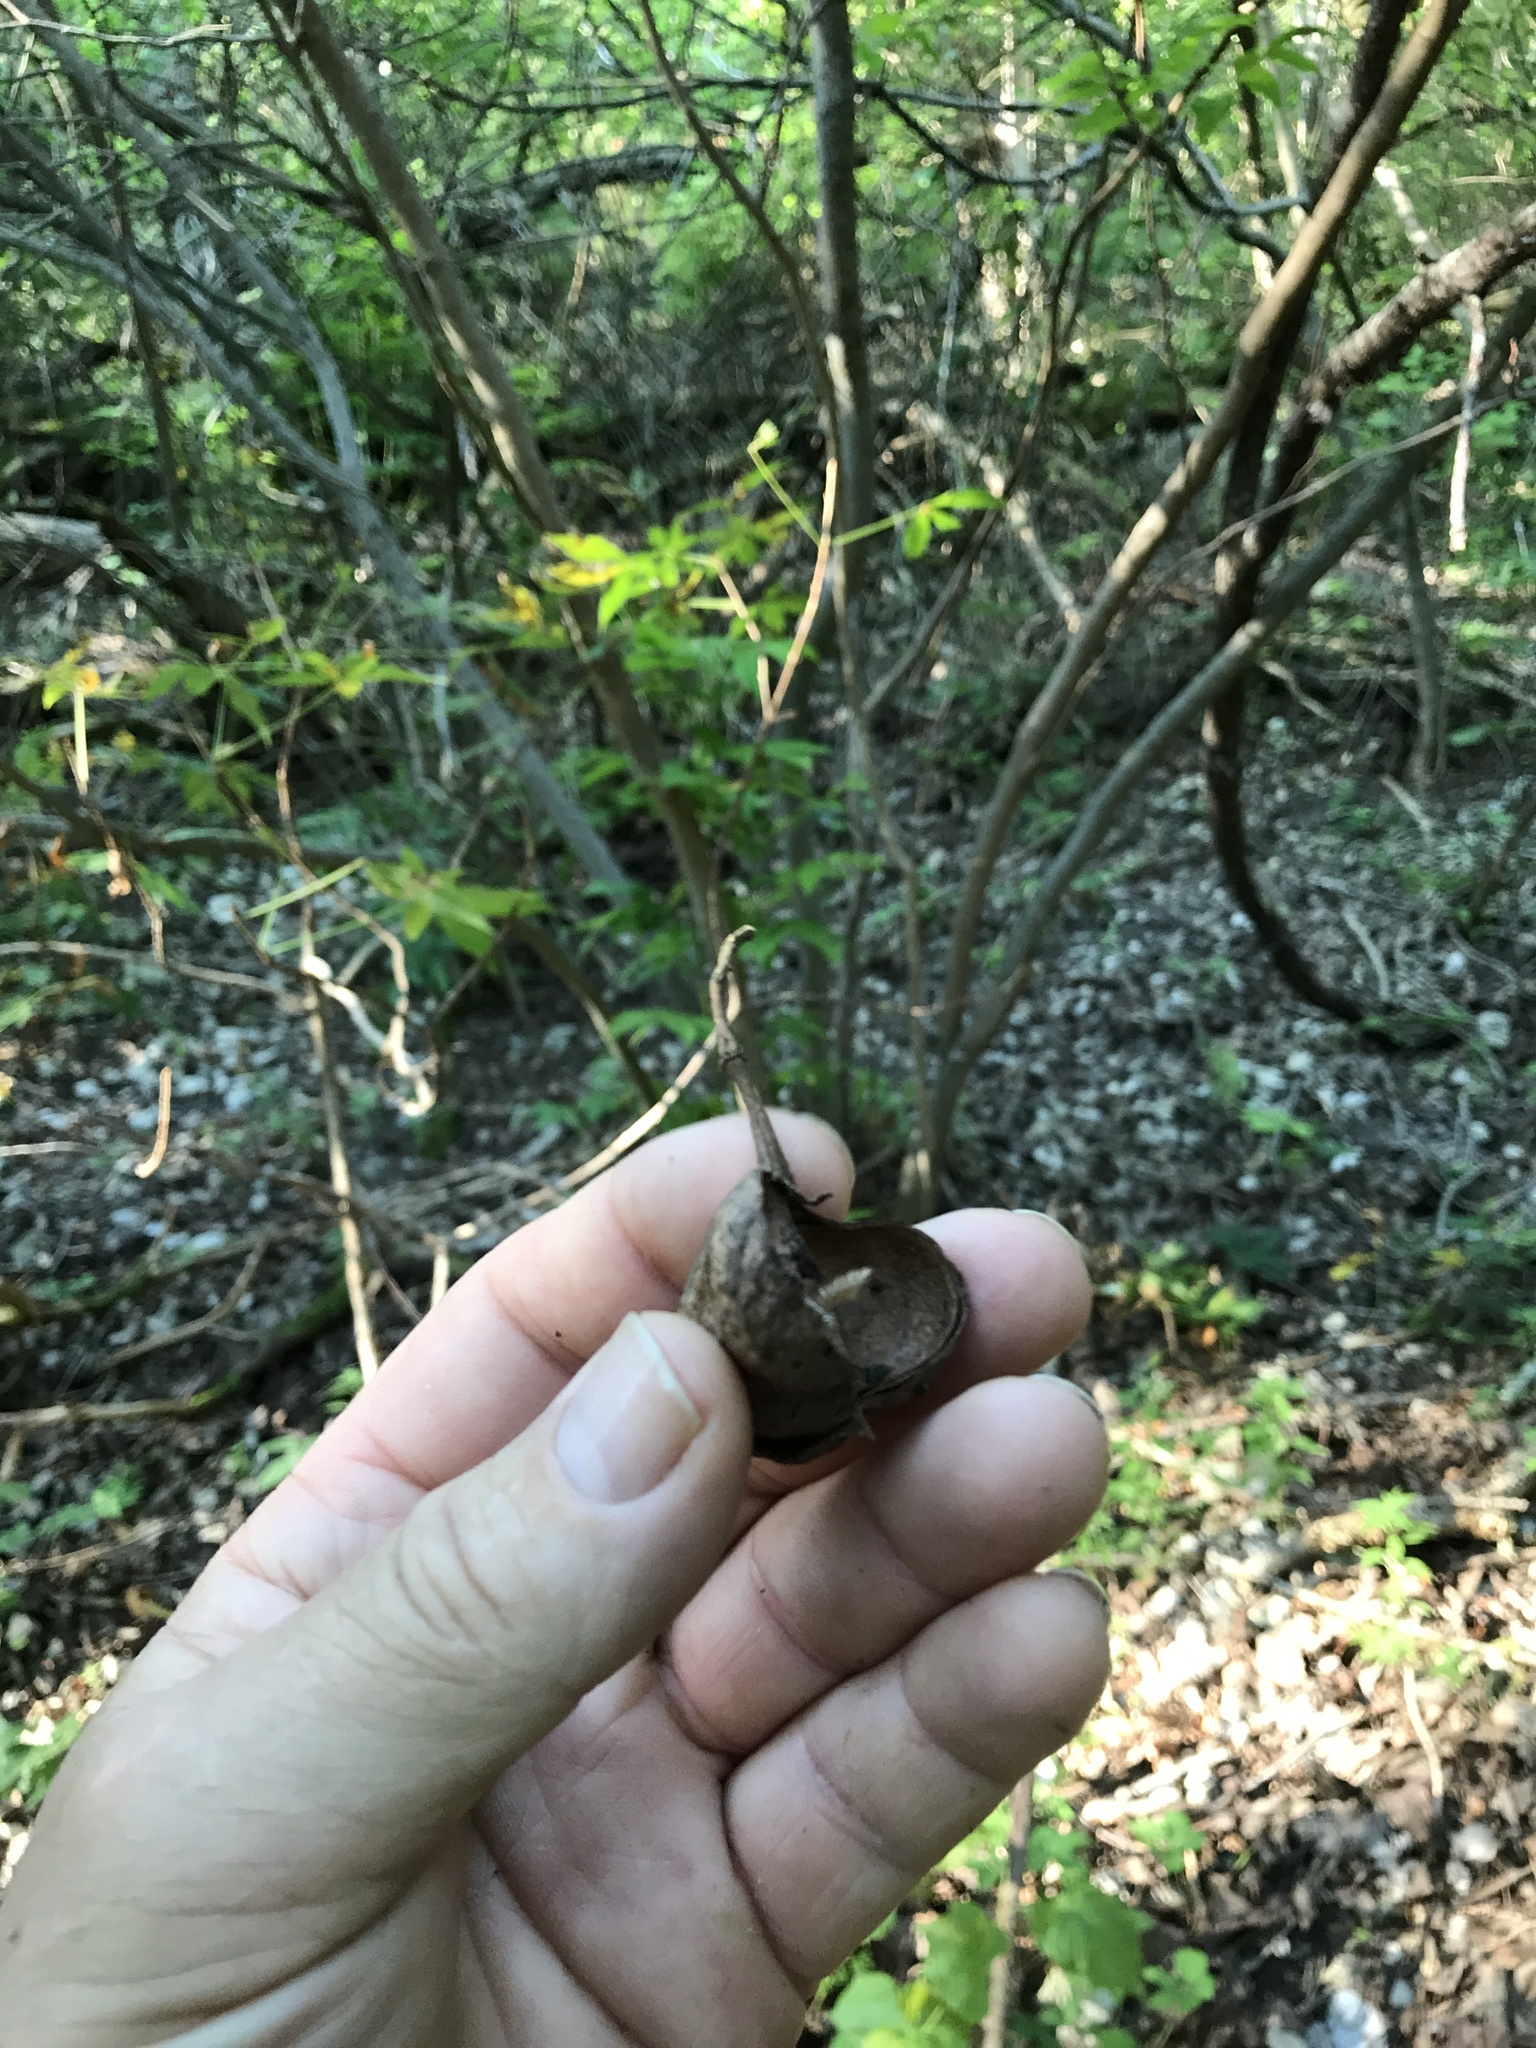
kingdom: Plantae
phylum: Tracheophyta
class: Magnoliopsida
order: Sapindales
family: Sapindaceae
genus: Ungnadia
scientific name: Ungnadia speciosa
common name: Texas-buckeye
